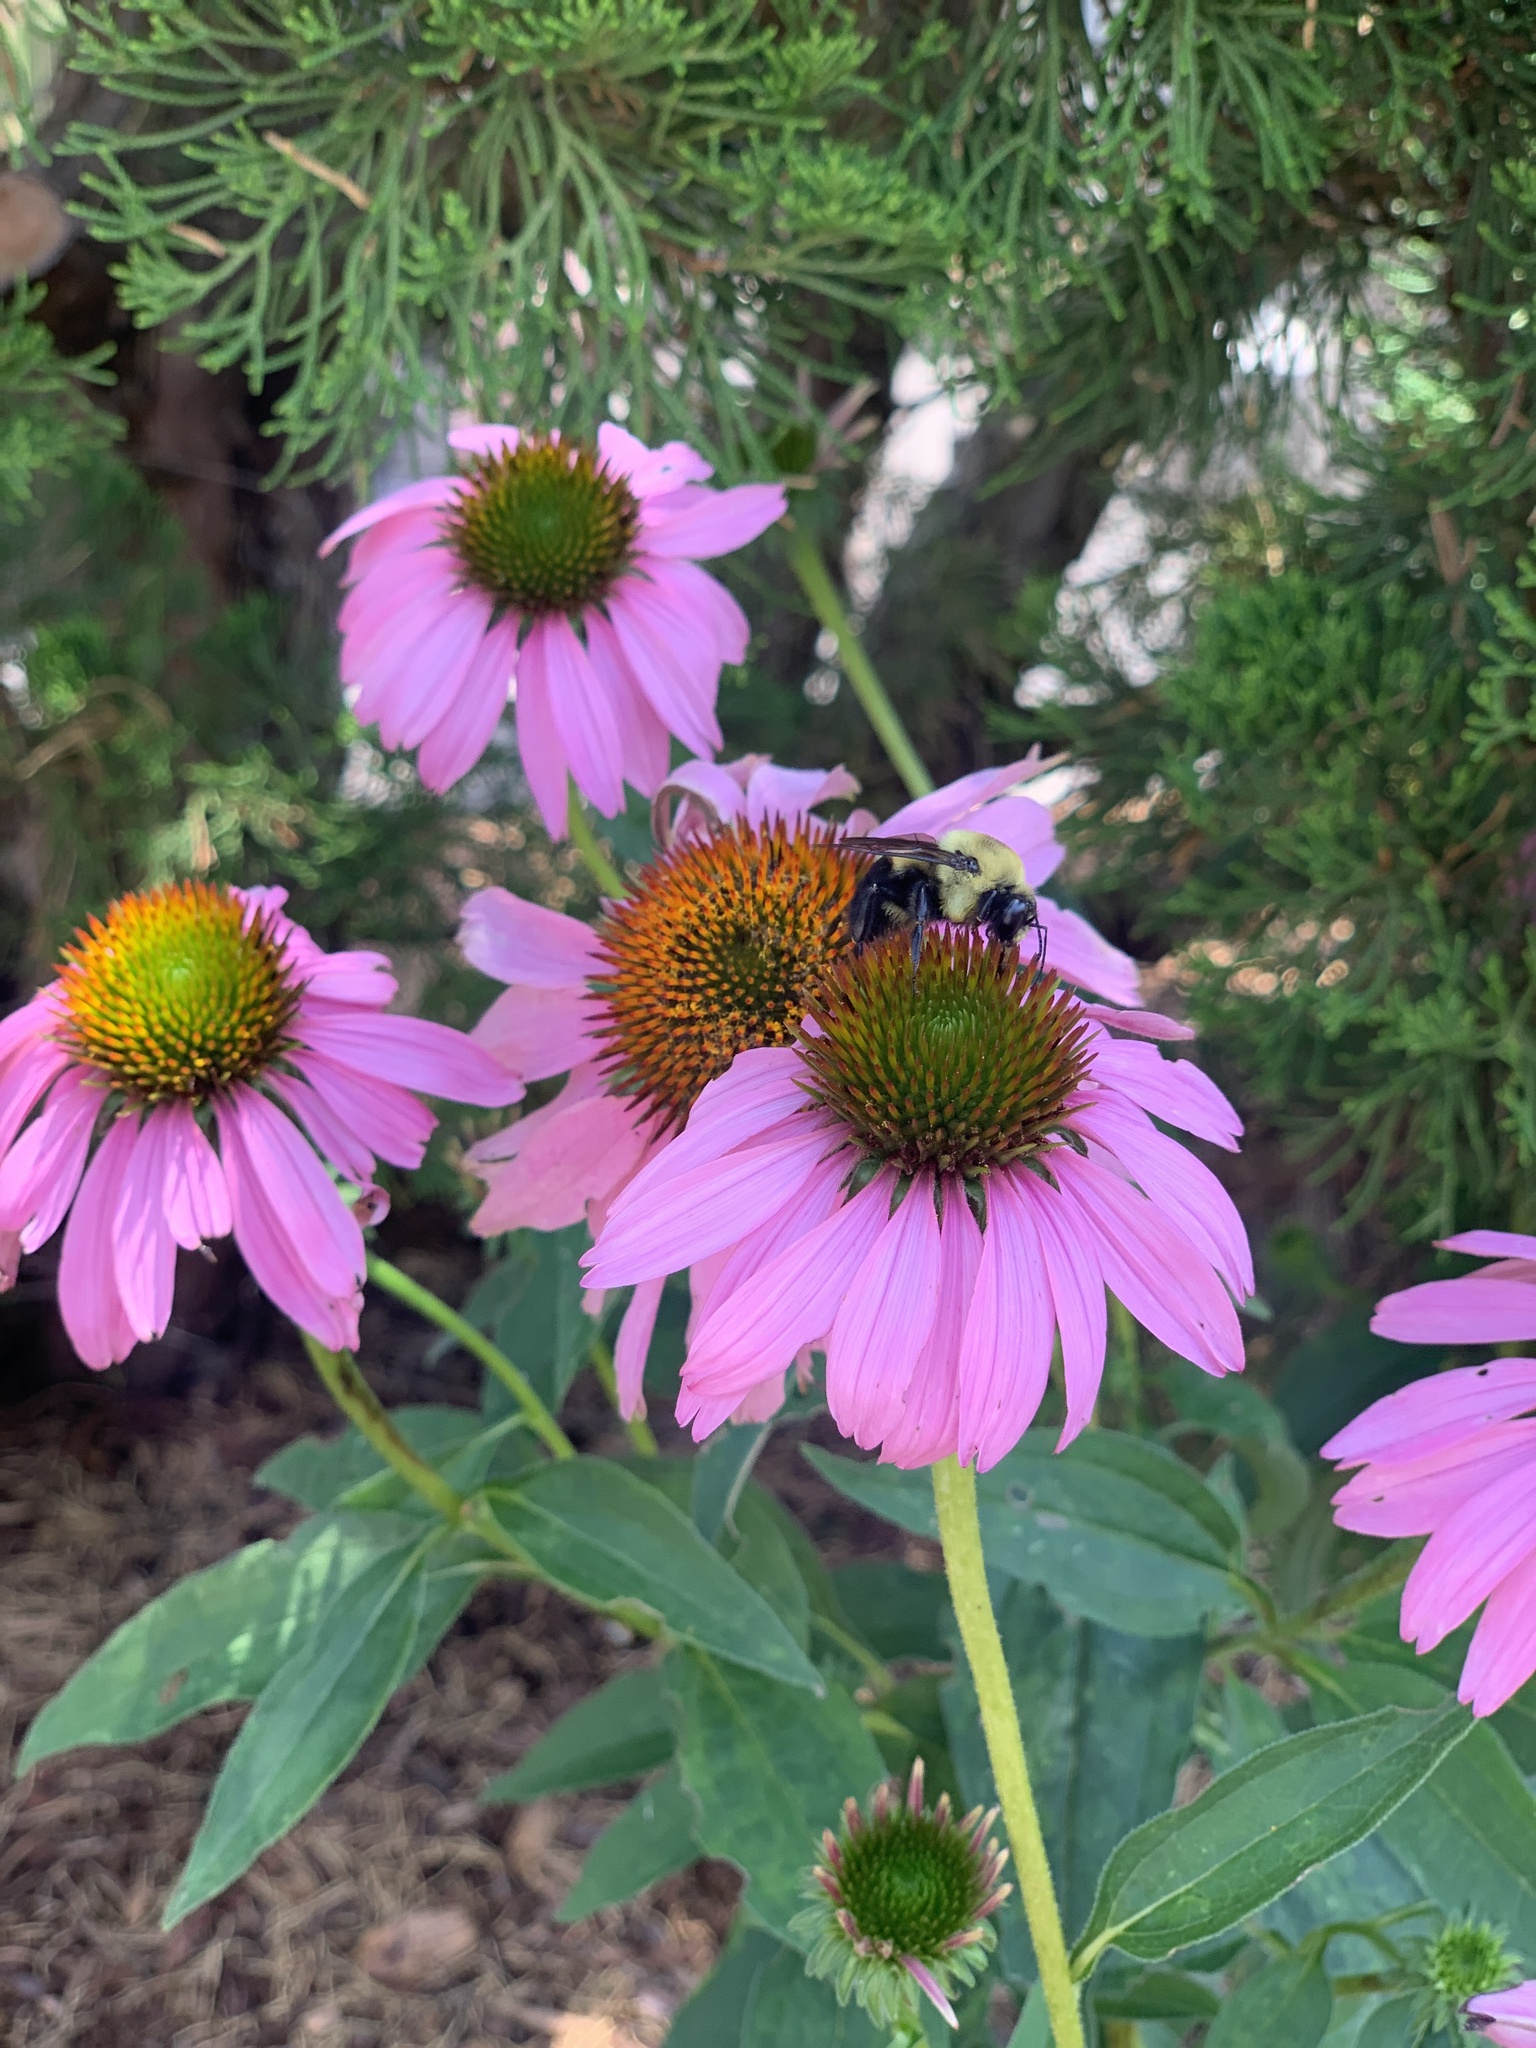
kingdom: Animalia
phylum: Arthropoda
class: Insecta
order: Hymenoptera
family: Apidae
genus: Bombus
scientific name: Bombus griseocollis
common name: Brown-belted bumble bee
